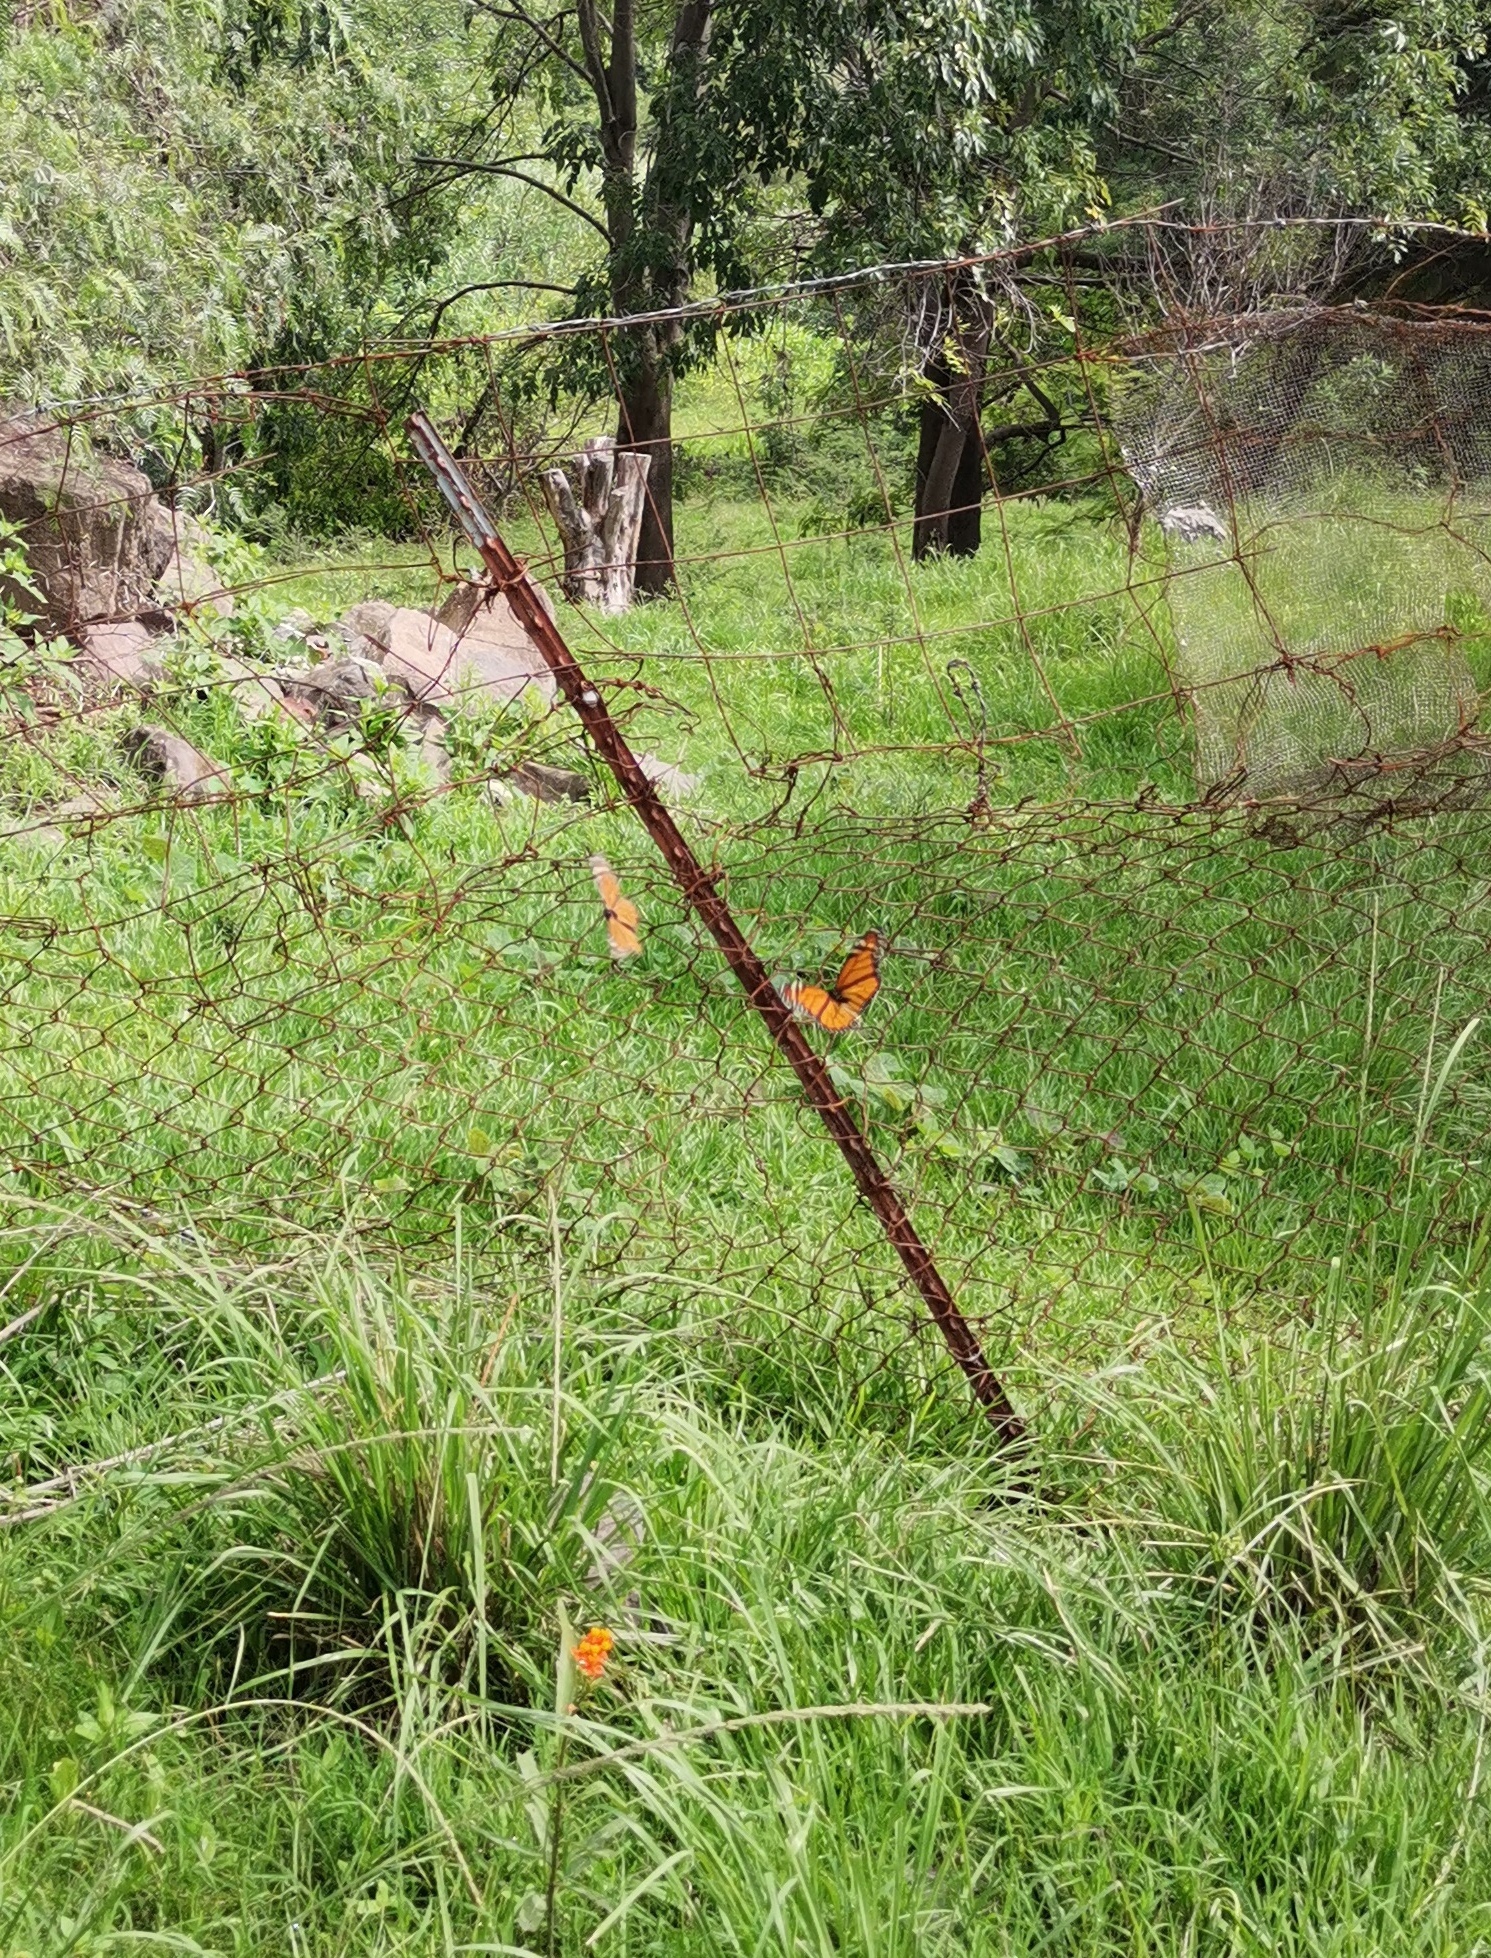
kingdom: Animalia
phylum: Arthropoda
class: Insecta
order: Lepidoptera
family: Nymphalidae
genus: Danaus
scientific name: Danaus plexippus
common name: Monarch
